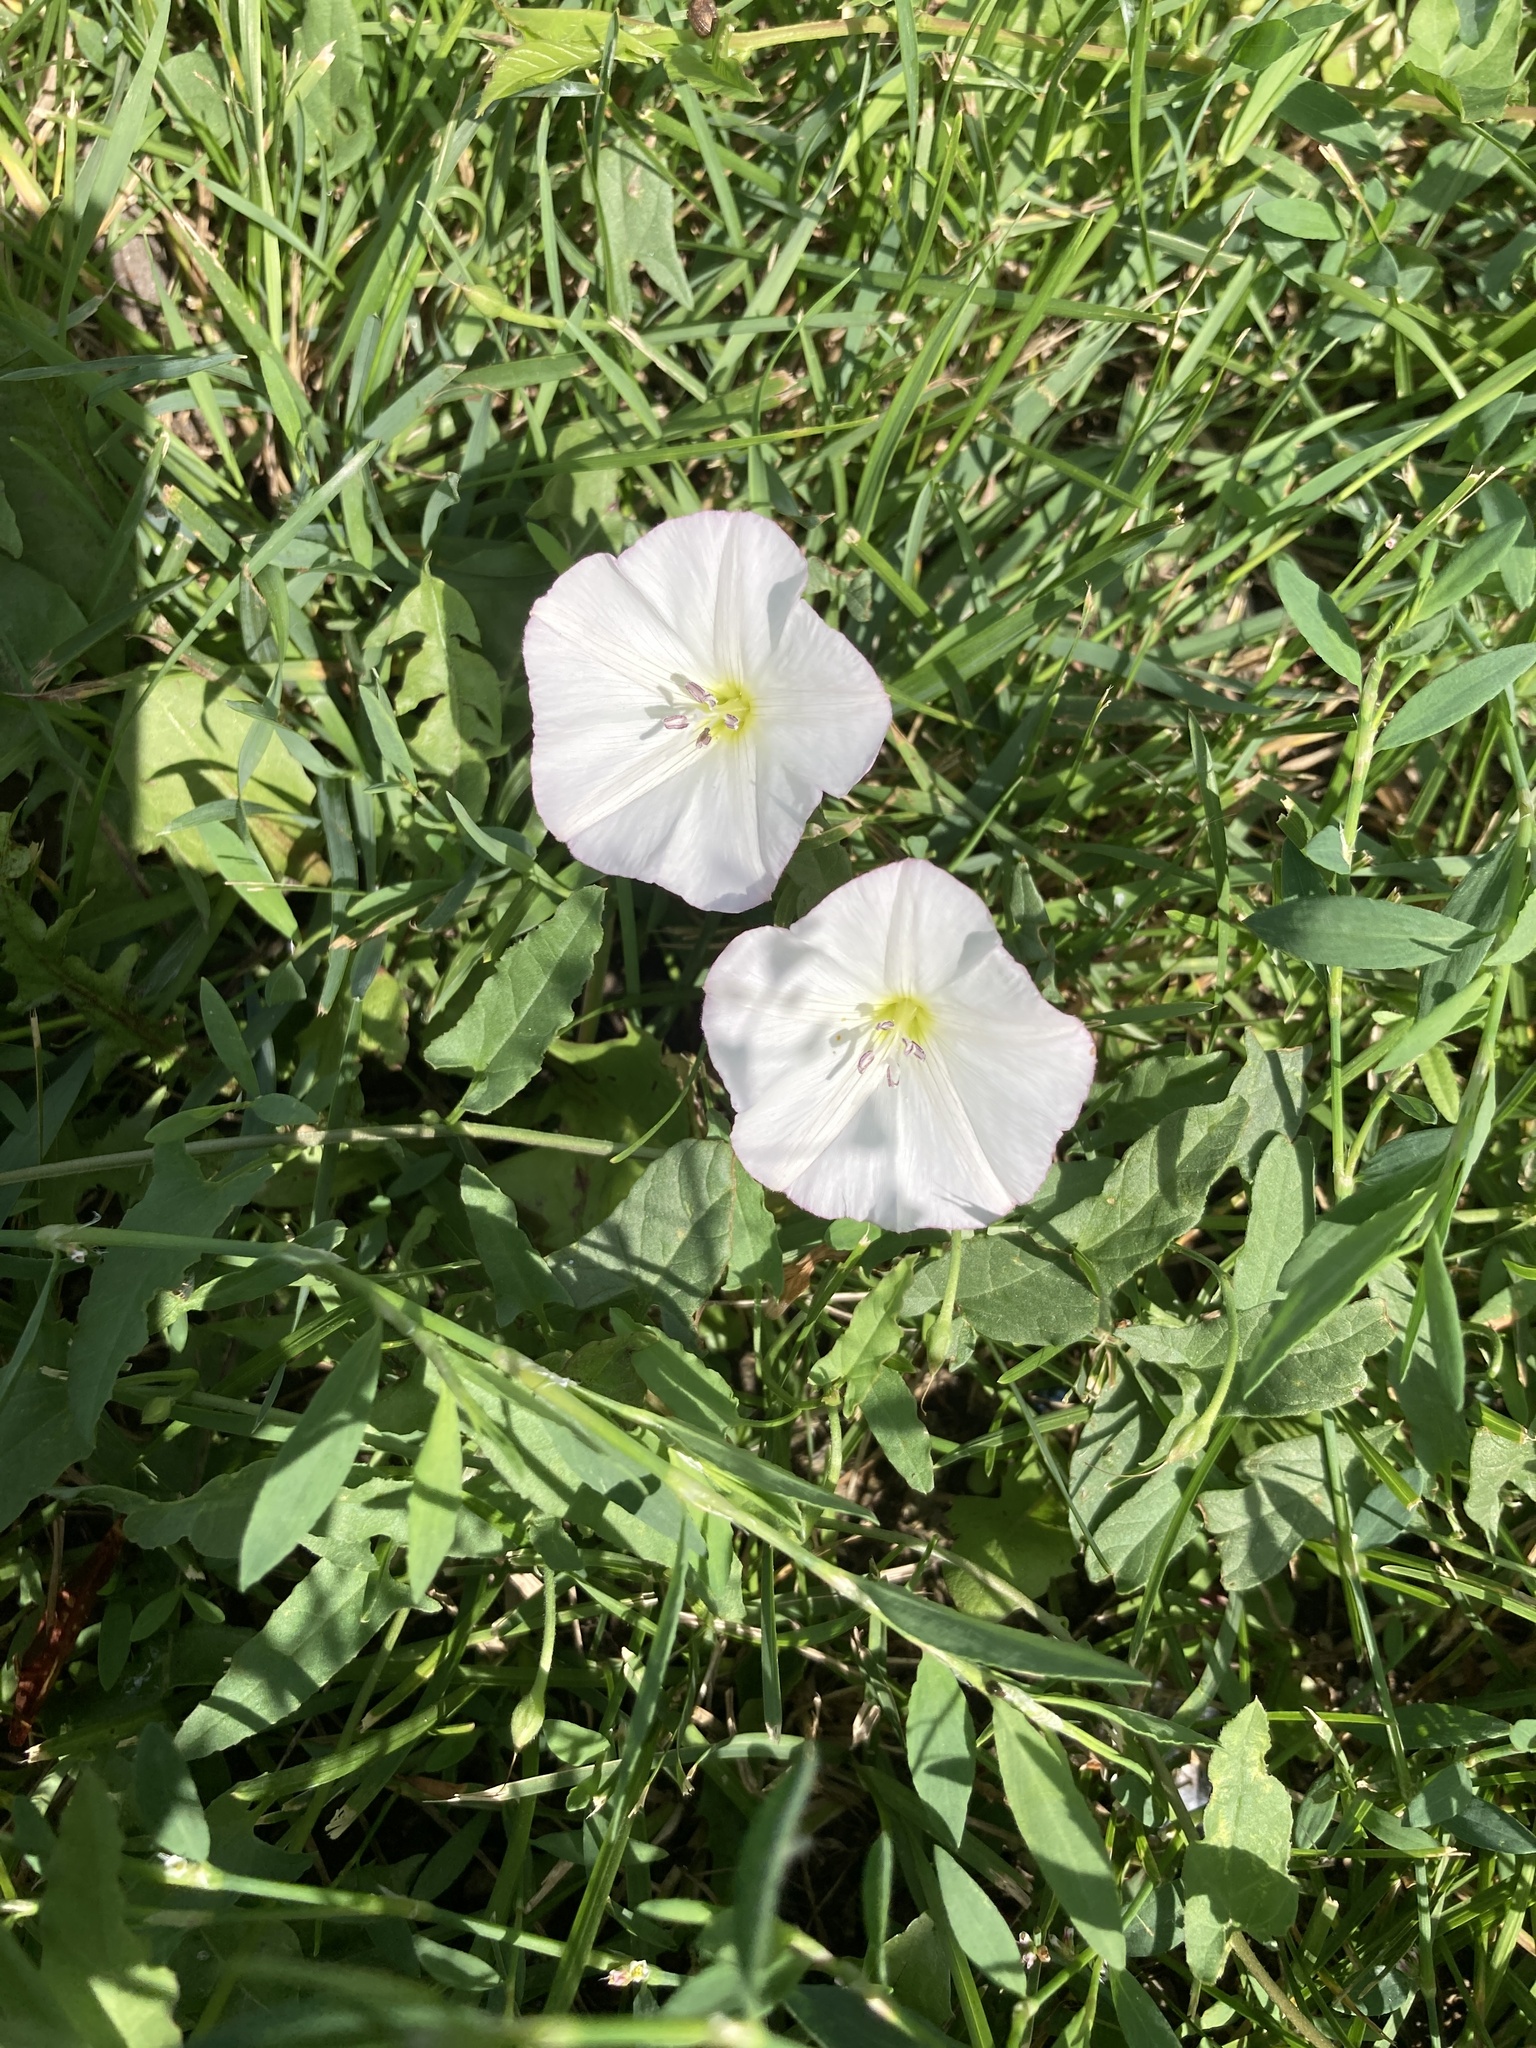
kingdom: Plantae
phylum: Tracheophyta
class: Magnoliopsida
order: Solanales
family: Convolvulaceae
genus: Convolvulus
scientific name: Convolvulus arvensis
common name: Field bindweed
